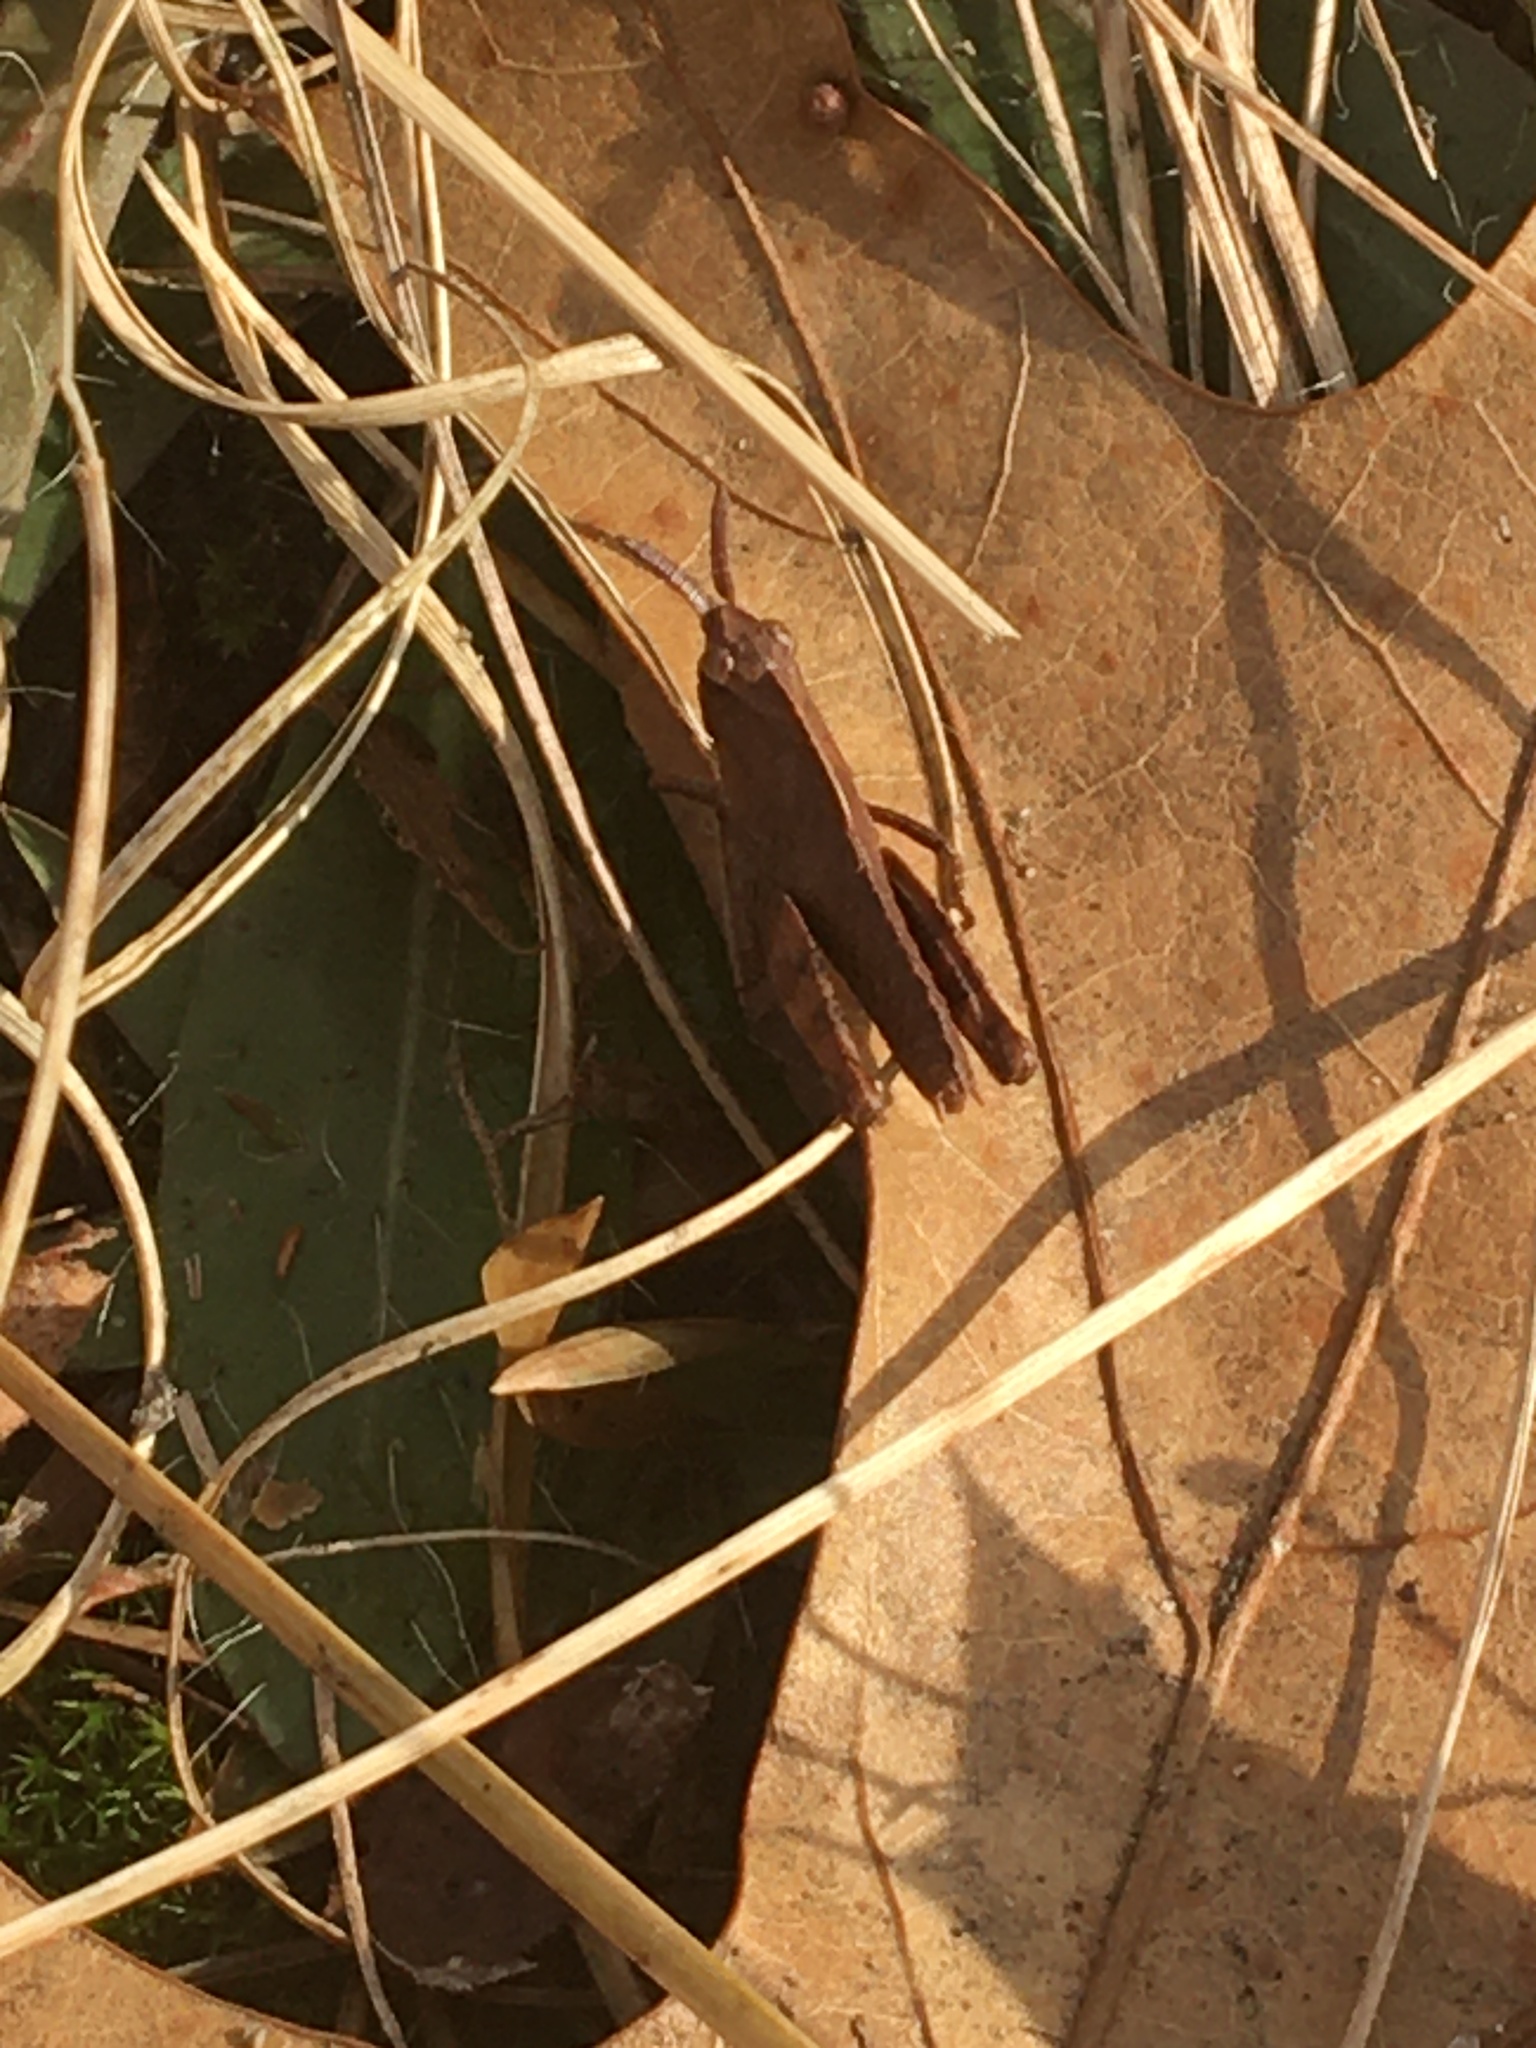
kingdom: Animalia
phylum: Arthropoda
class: Insecta
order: Orthoptera
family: Acrididae
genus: Chortophaga
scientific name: Chortophaga viridifasciata
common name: Green-striped grasshopper
